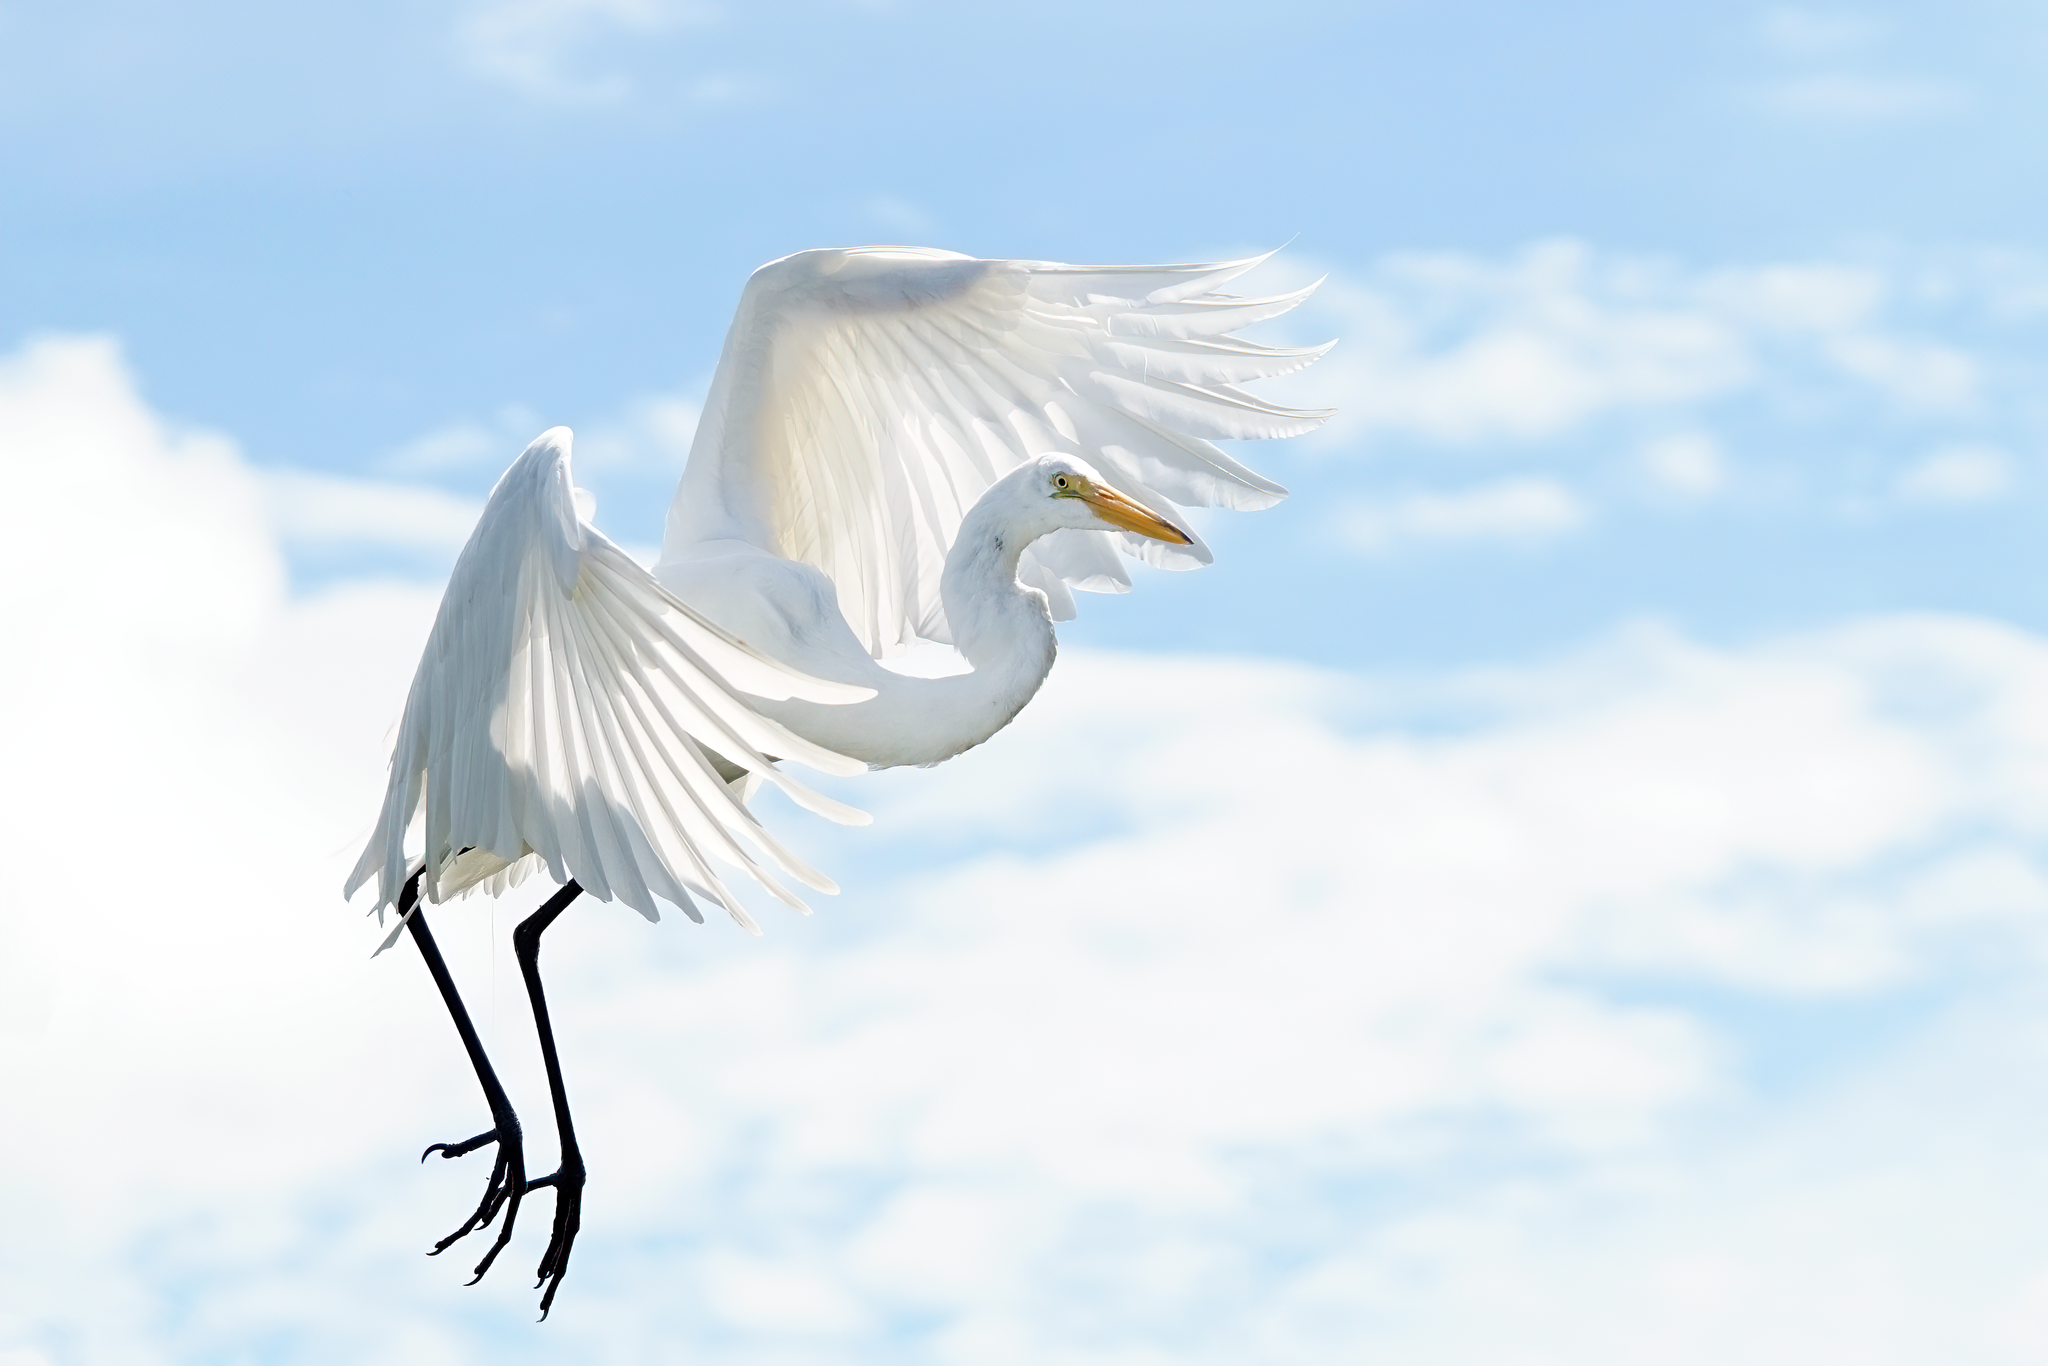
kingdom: Animalia
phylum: Chordata
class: Aves
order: Pelecaniformes
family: Ardeidae
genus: Ardea
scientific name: Ardea alba
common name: Great egret
